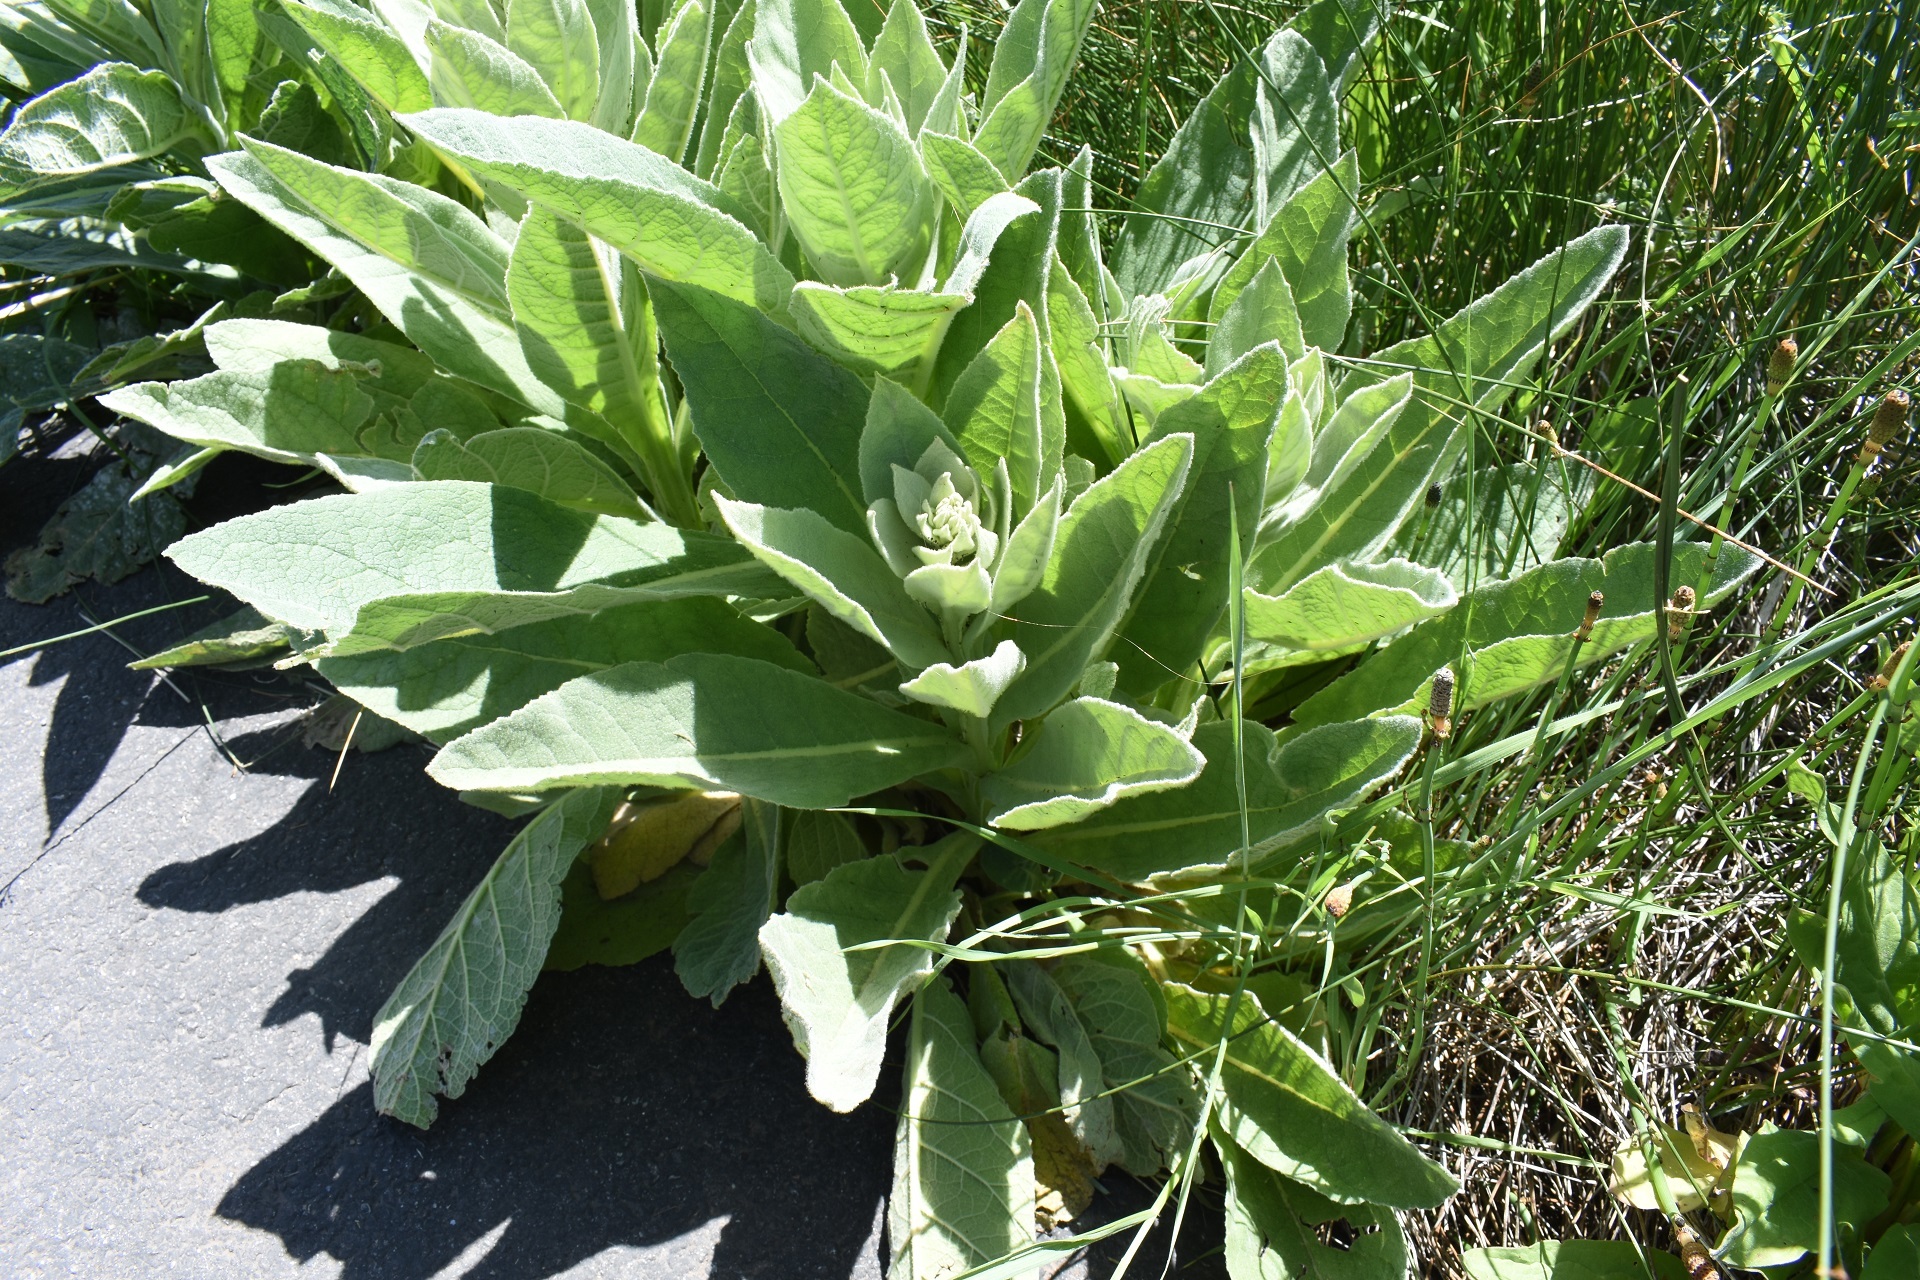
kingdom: Plantae
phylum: Tracheophyta
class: Magnoliopsida
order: Lamiales
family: Scrophulariaceae
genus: Verbascum
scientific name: Verbascum thapsus
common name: Common mullein
